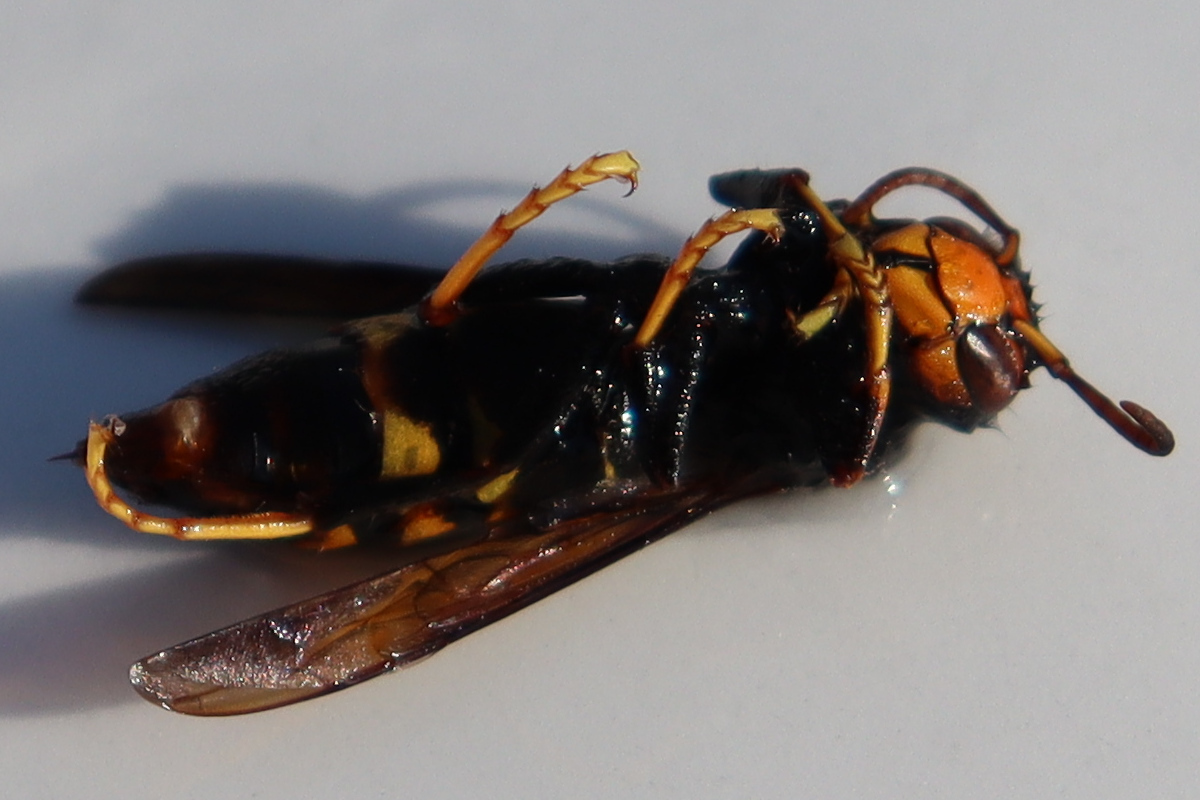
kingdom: Animalia
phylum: Arthropoda
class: Insecta
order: Hymenoptera
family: Vespidae
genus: Vespa
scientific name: Vespa velutina
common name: Asian hornet
